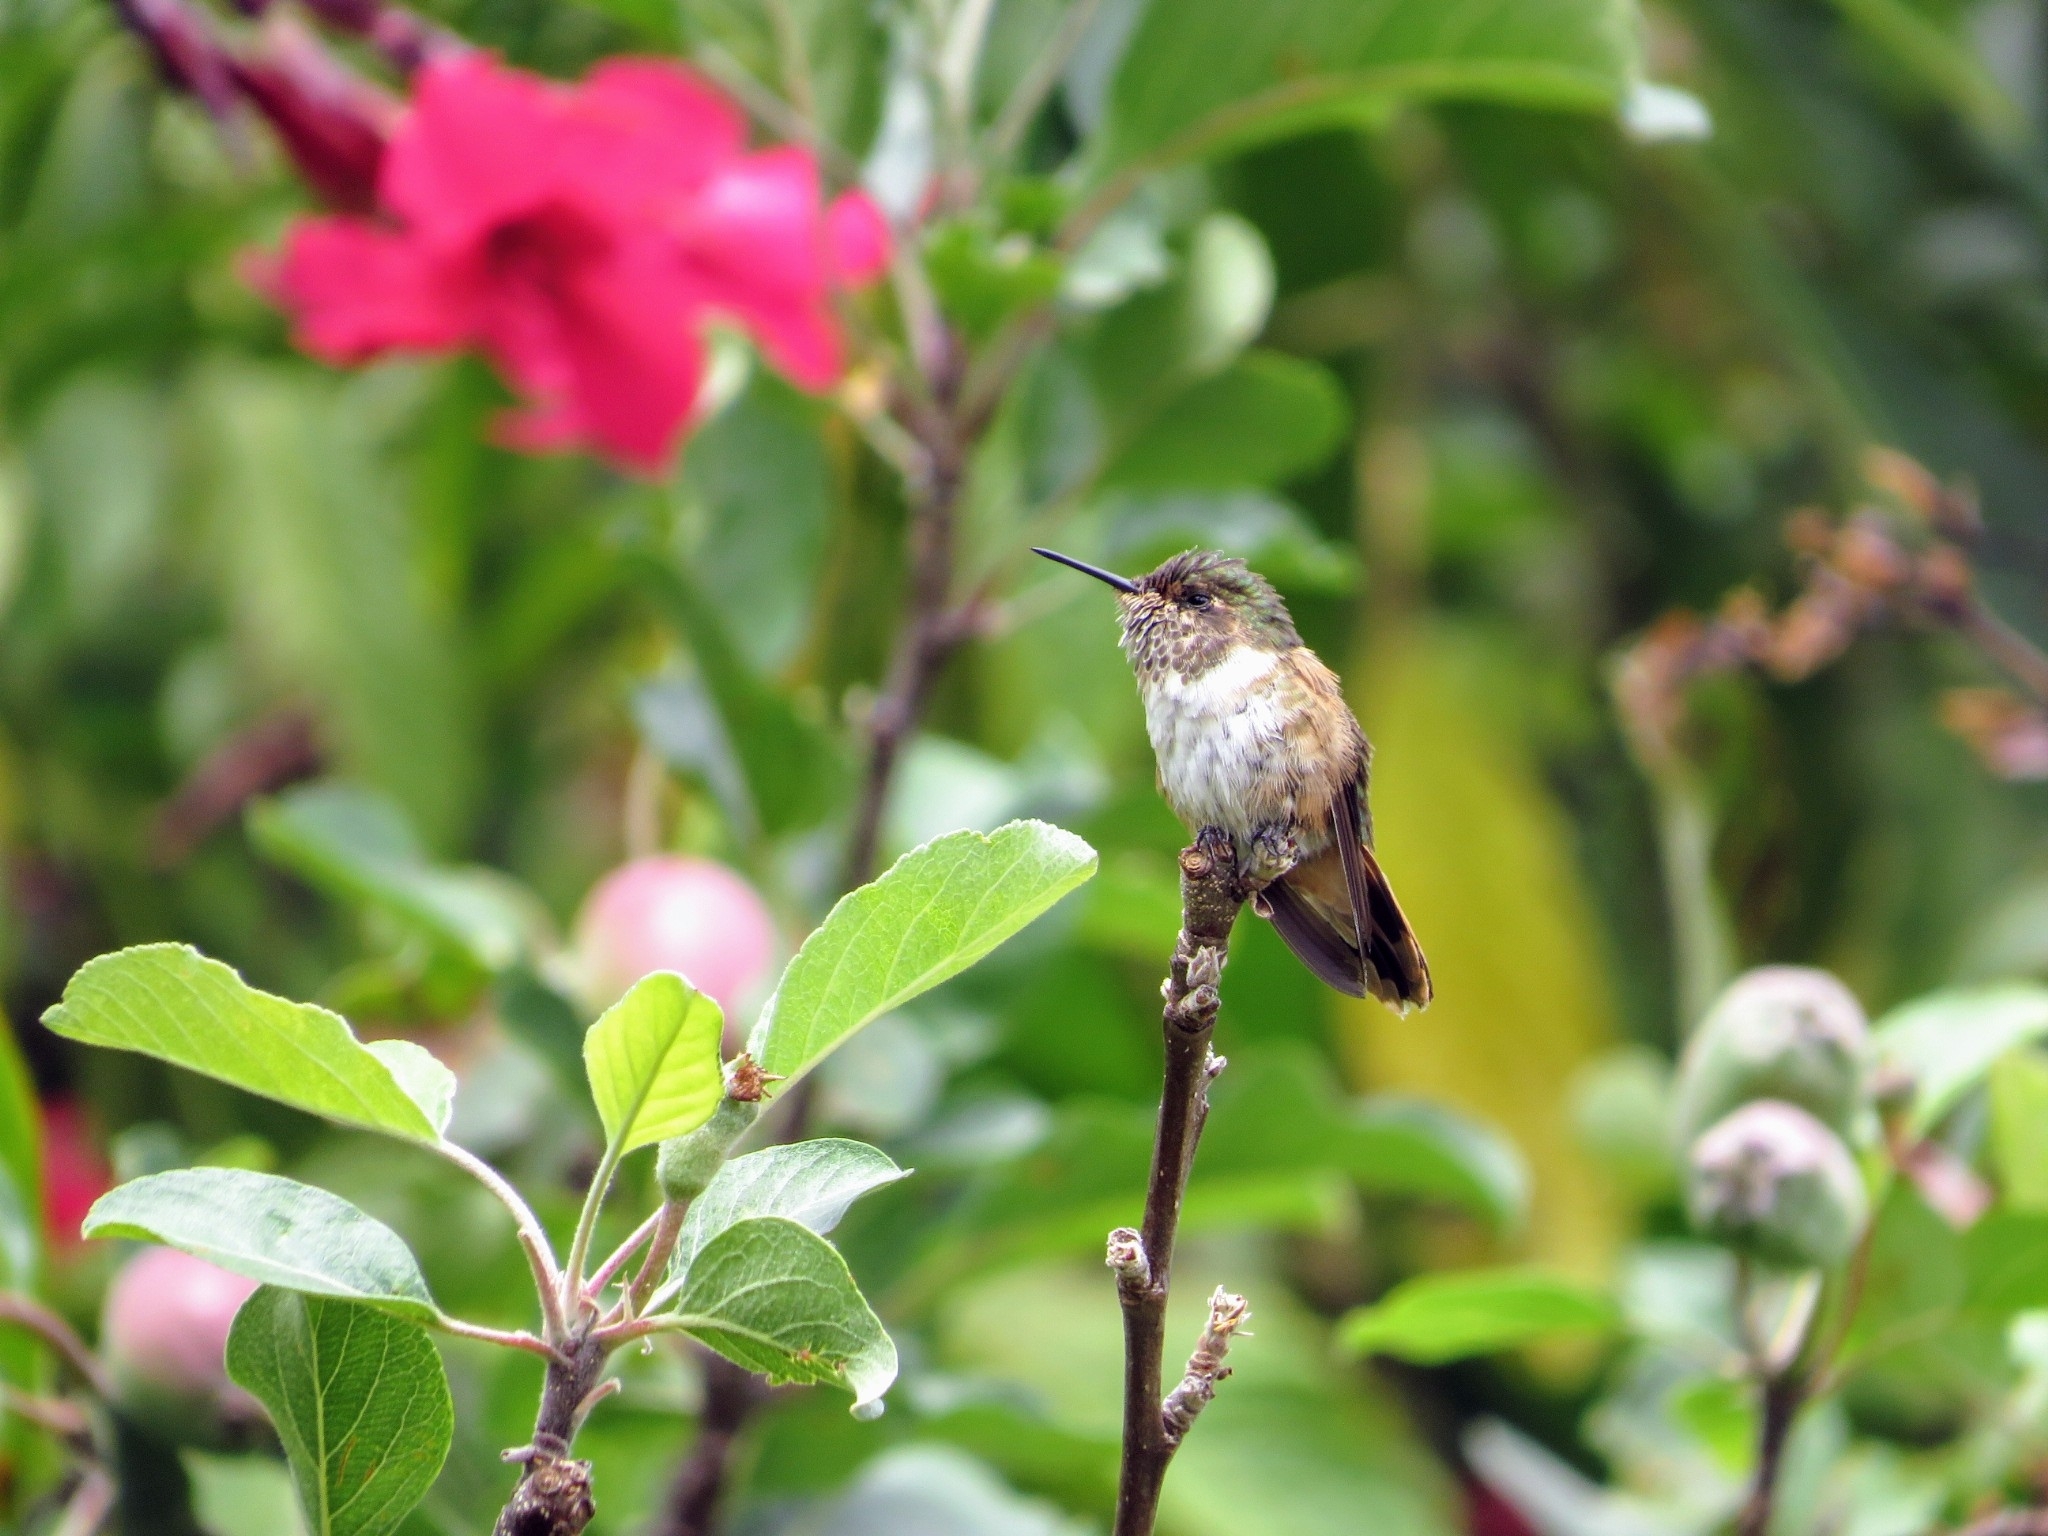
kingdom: Animalia
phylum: Chordata
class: Aves
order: Apodiformes
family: Trochilidae
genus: Selasphorus
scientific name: Selasphorus flammula
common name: Volcano hummingbird
